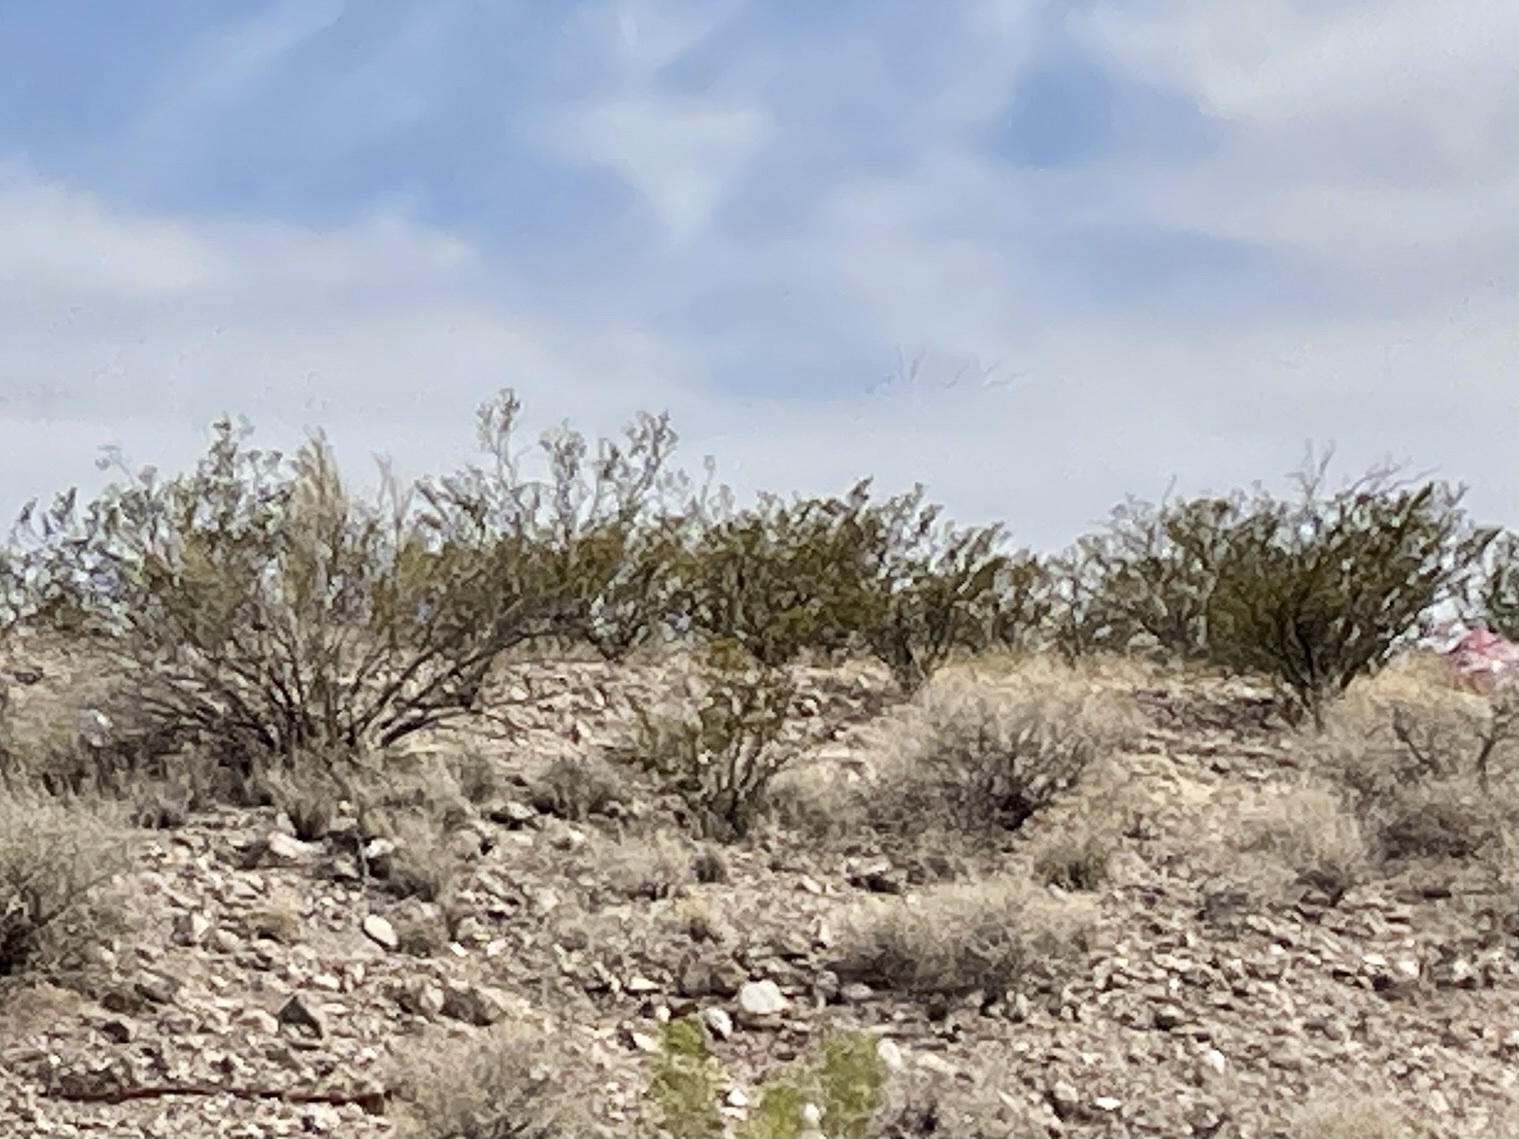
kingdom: Plantae
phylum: Tracheophyta
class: Magnoliopsida
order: Zygophyllales
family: Zygophyllaceae
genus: Larrea
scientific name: Larrea tridentata
